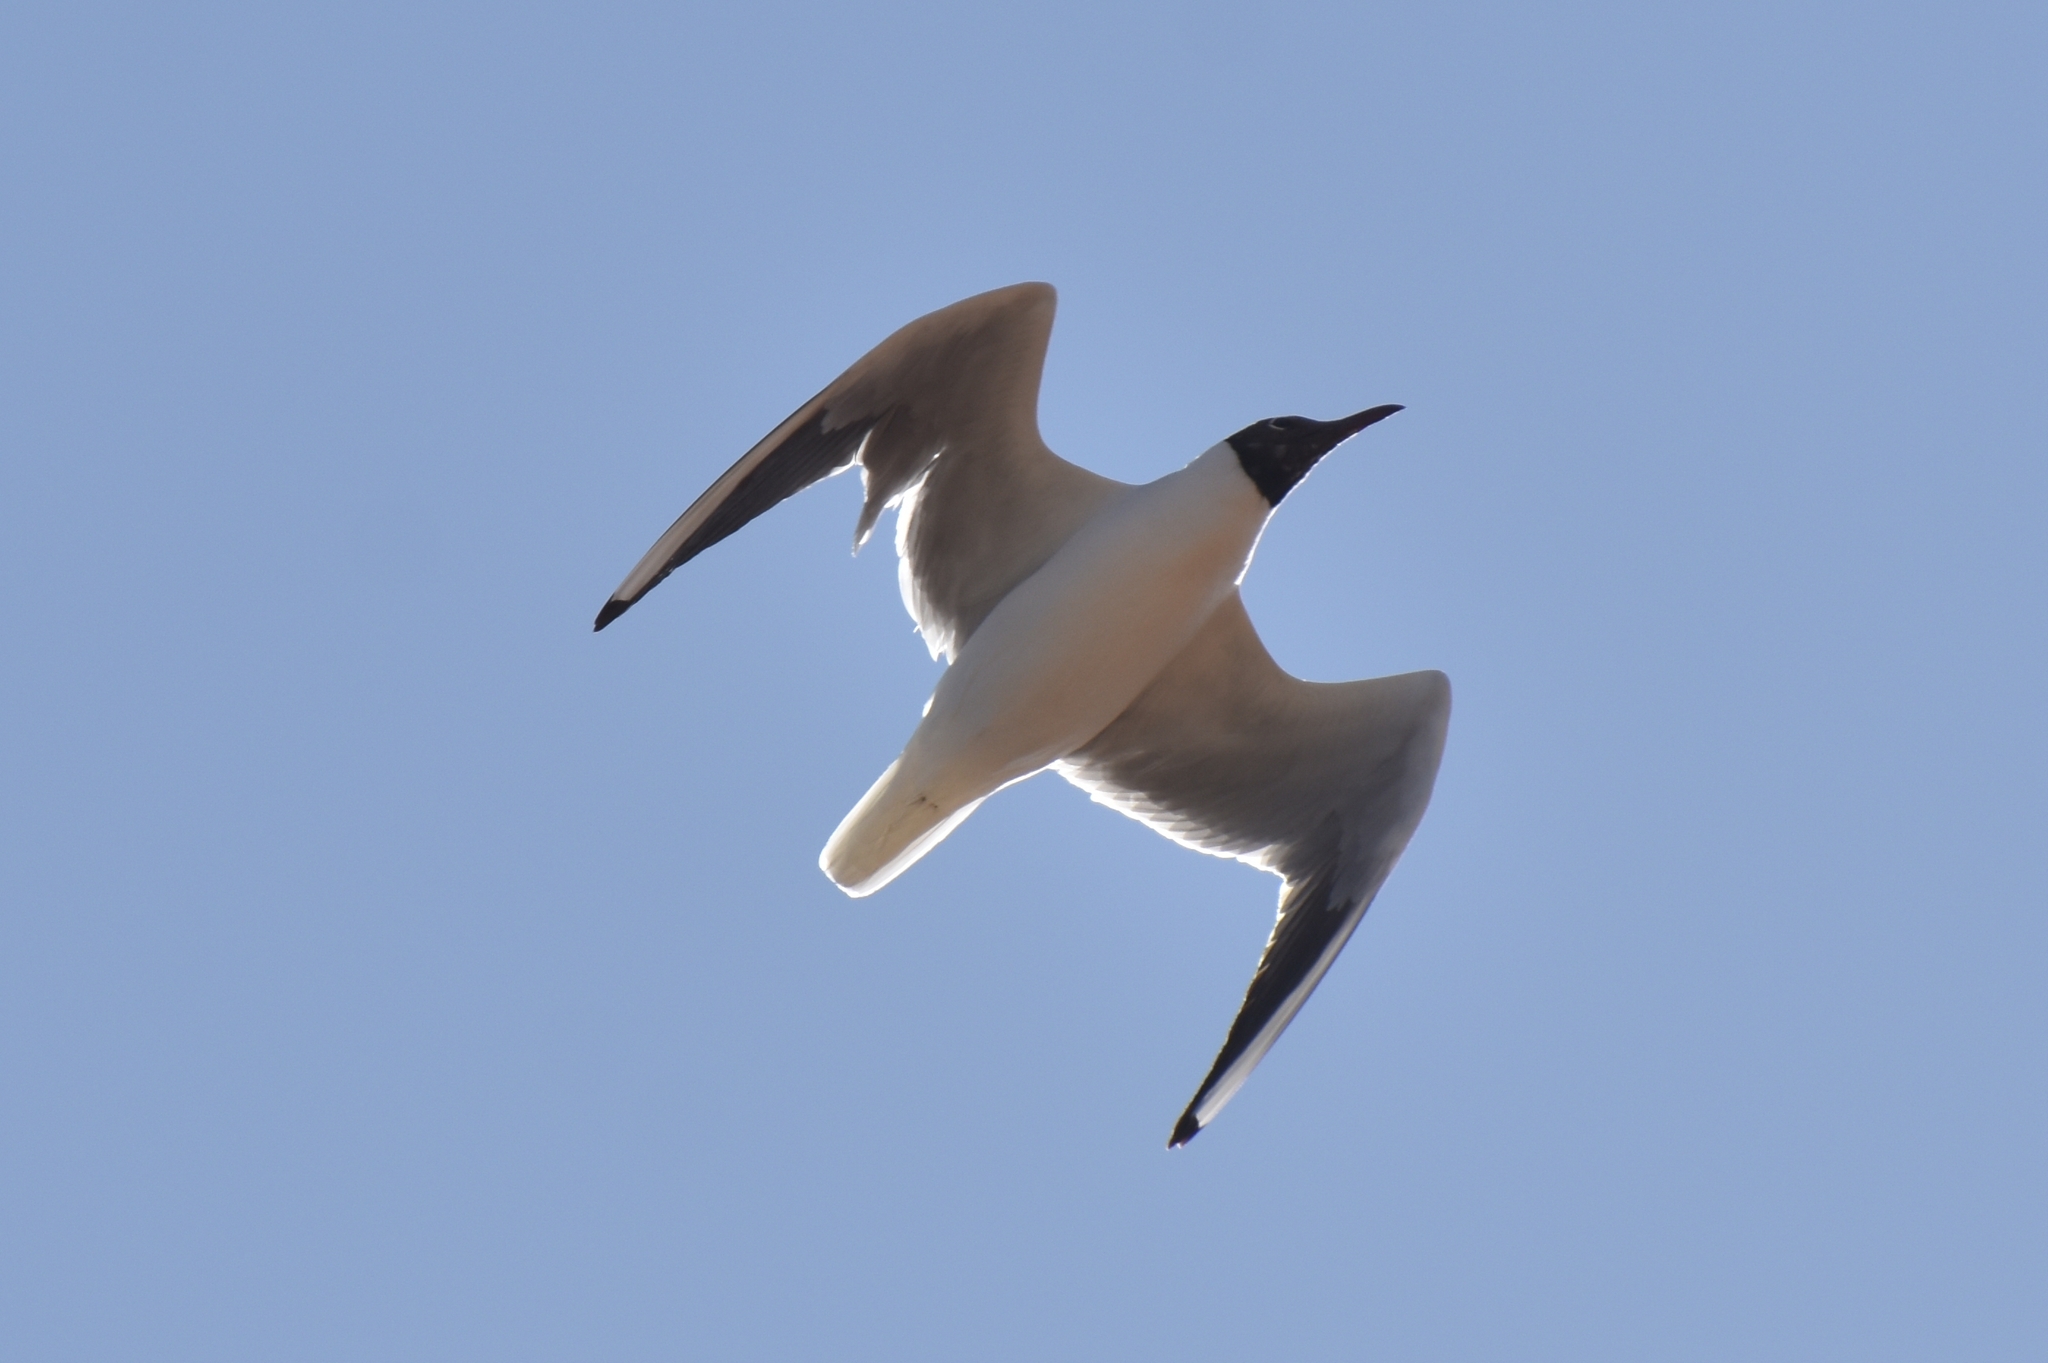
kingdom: Animalia
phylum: Chordata
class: Aves
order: Charadriiformes
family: Laridae
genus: Chroicocephalus
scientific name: Chroicocephalus ridibundus
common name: Black-headed gull
